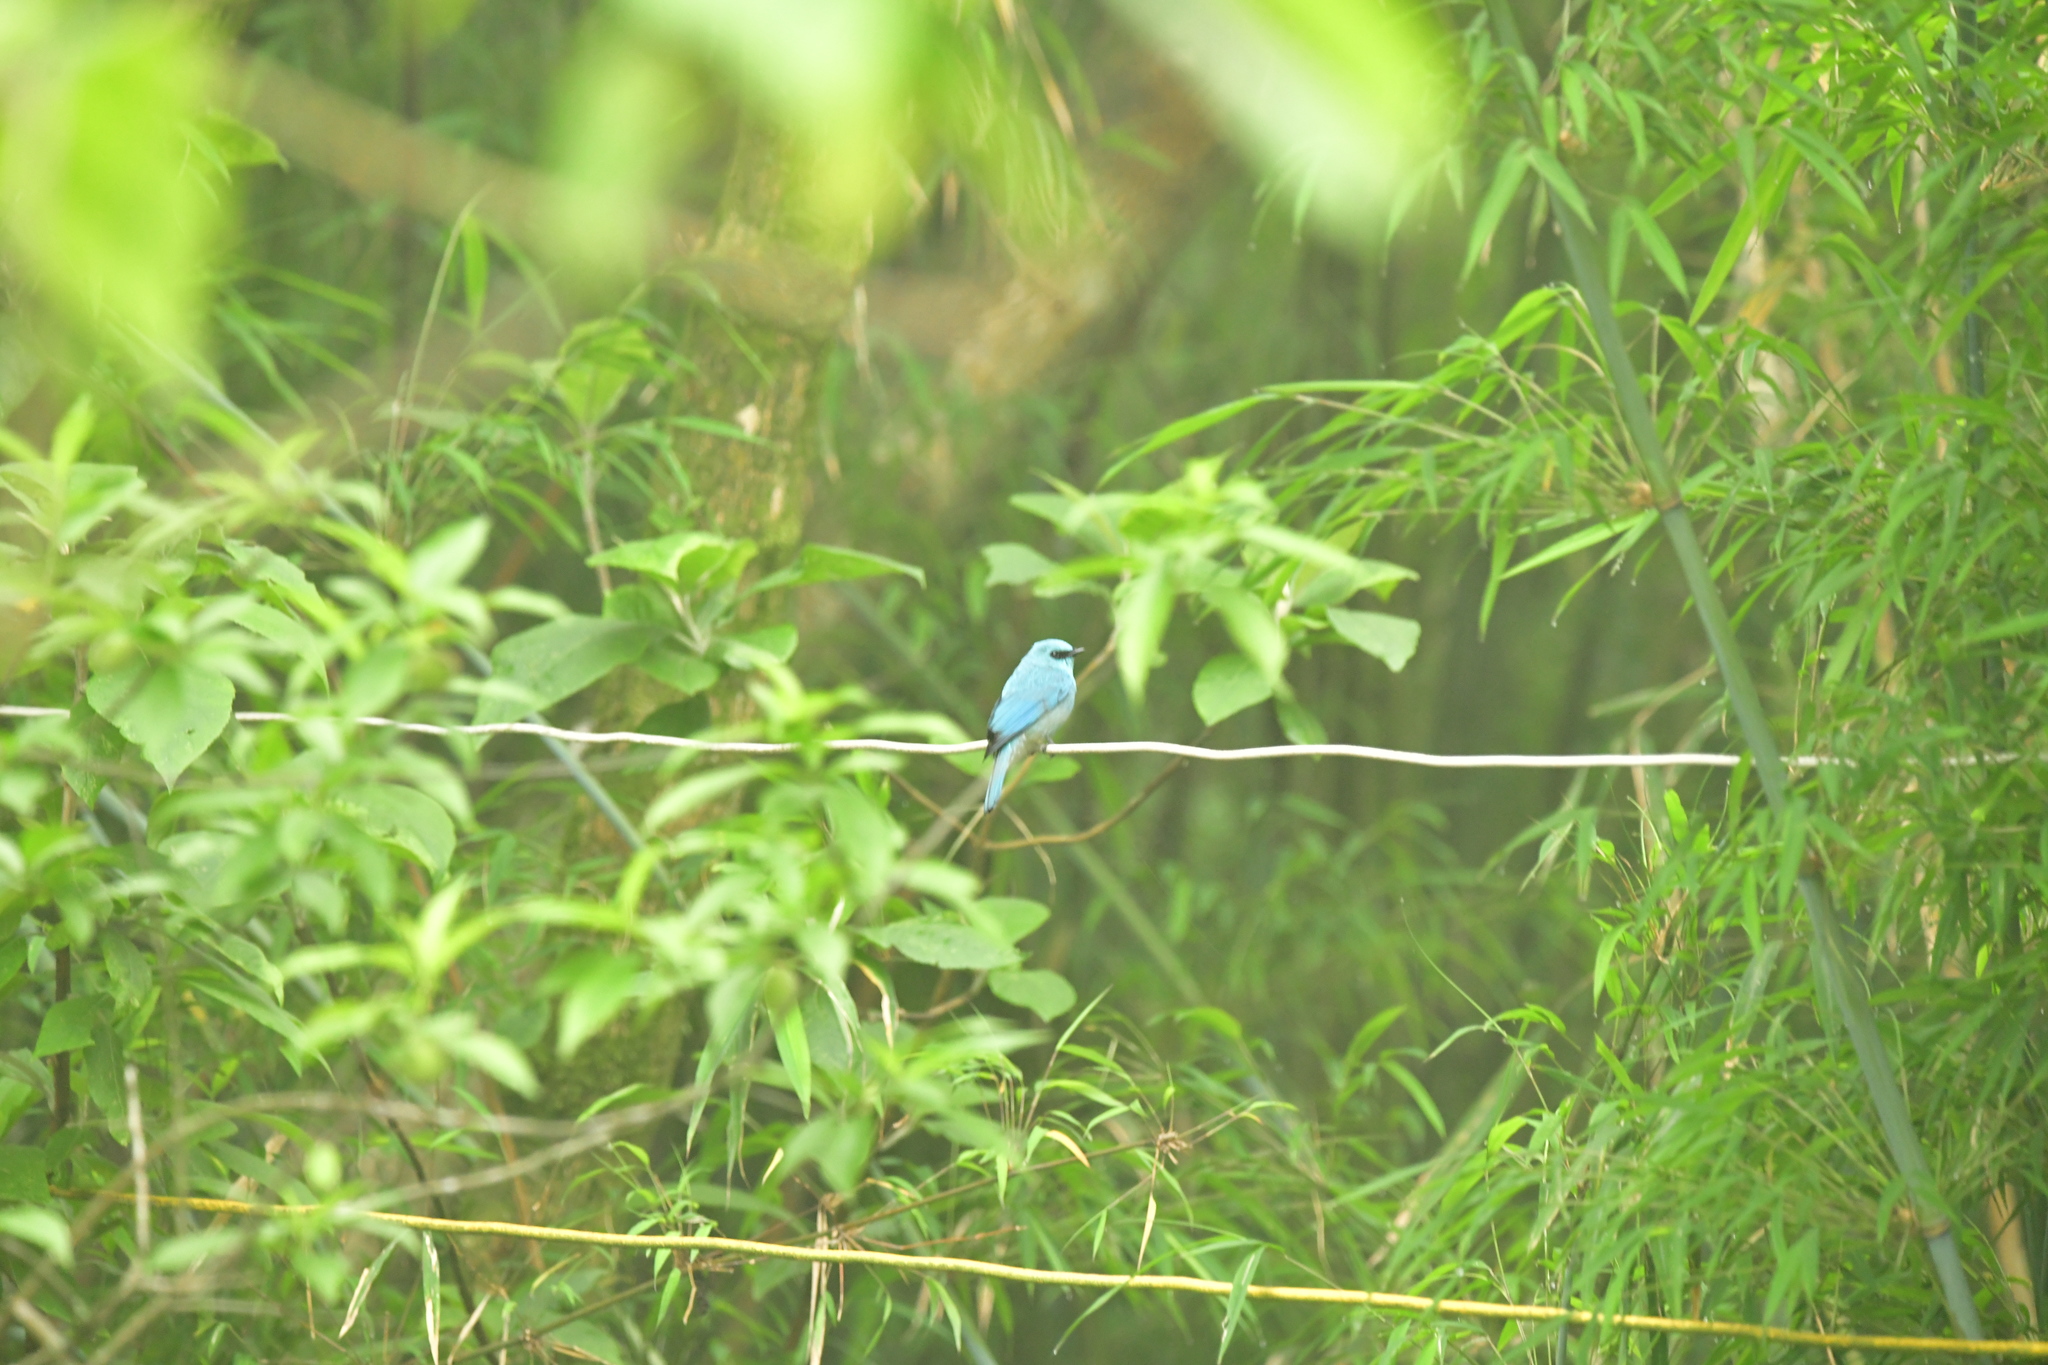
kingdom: Animalia
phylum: Chordata
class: Aves
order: Passeriformes
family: Muscicapidae
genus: Eumyias
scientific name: Eumyias thalassinus
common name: Verditer flycatcher
